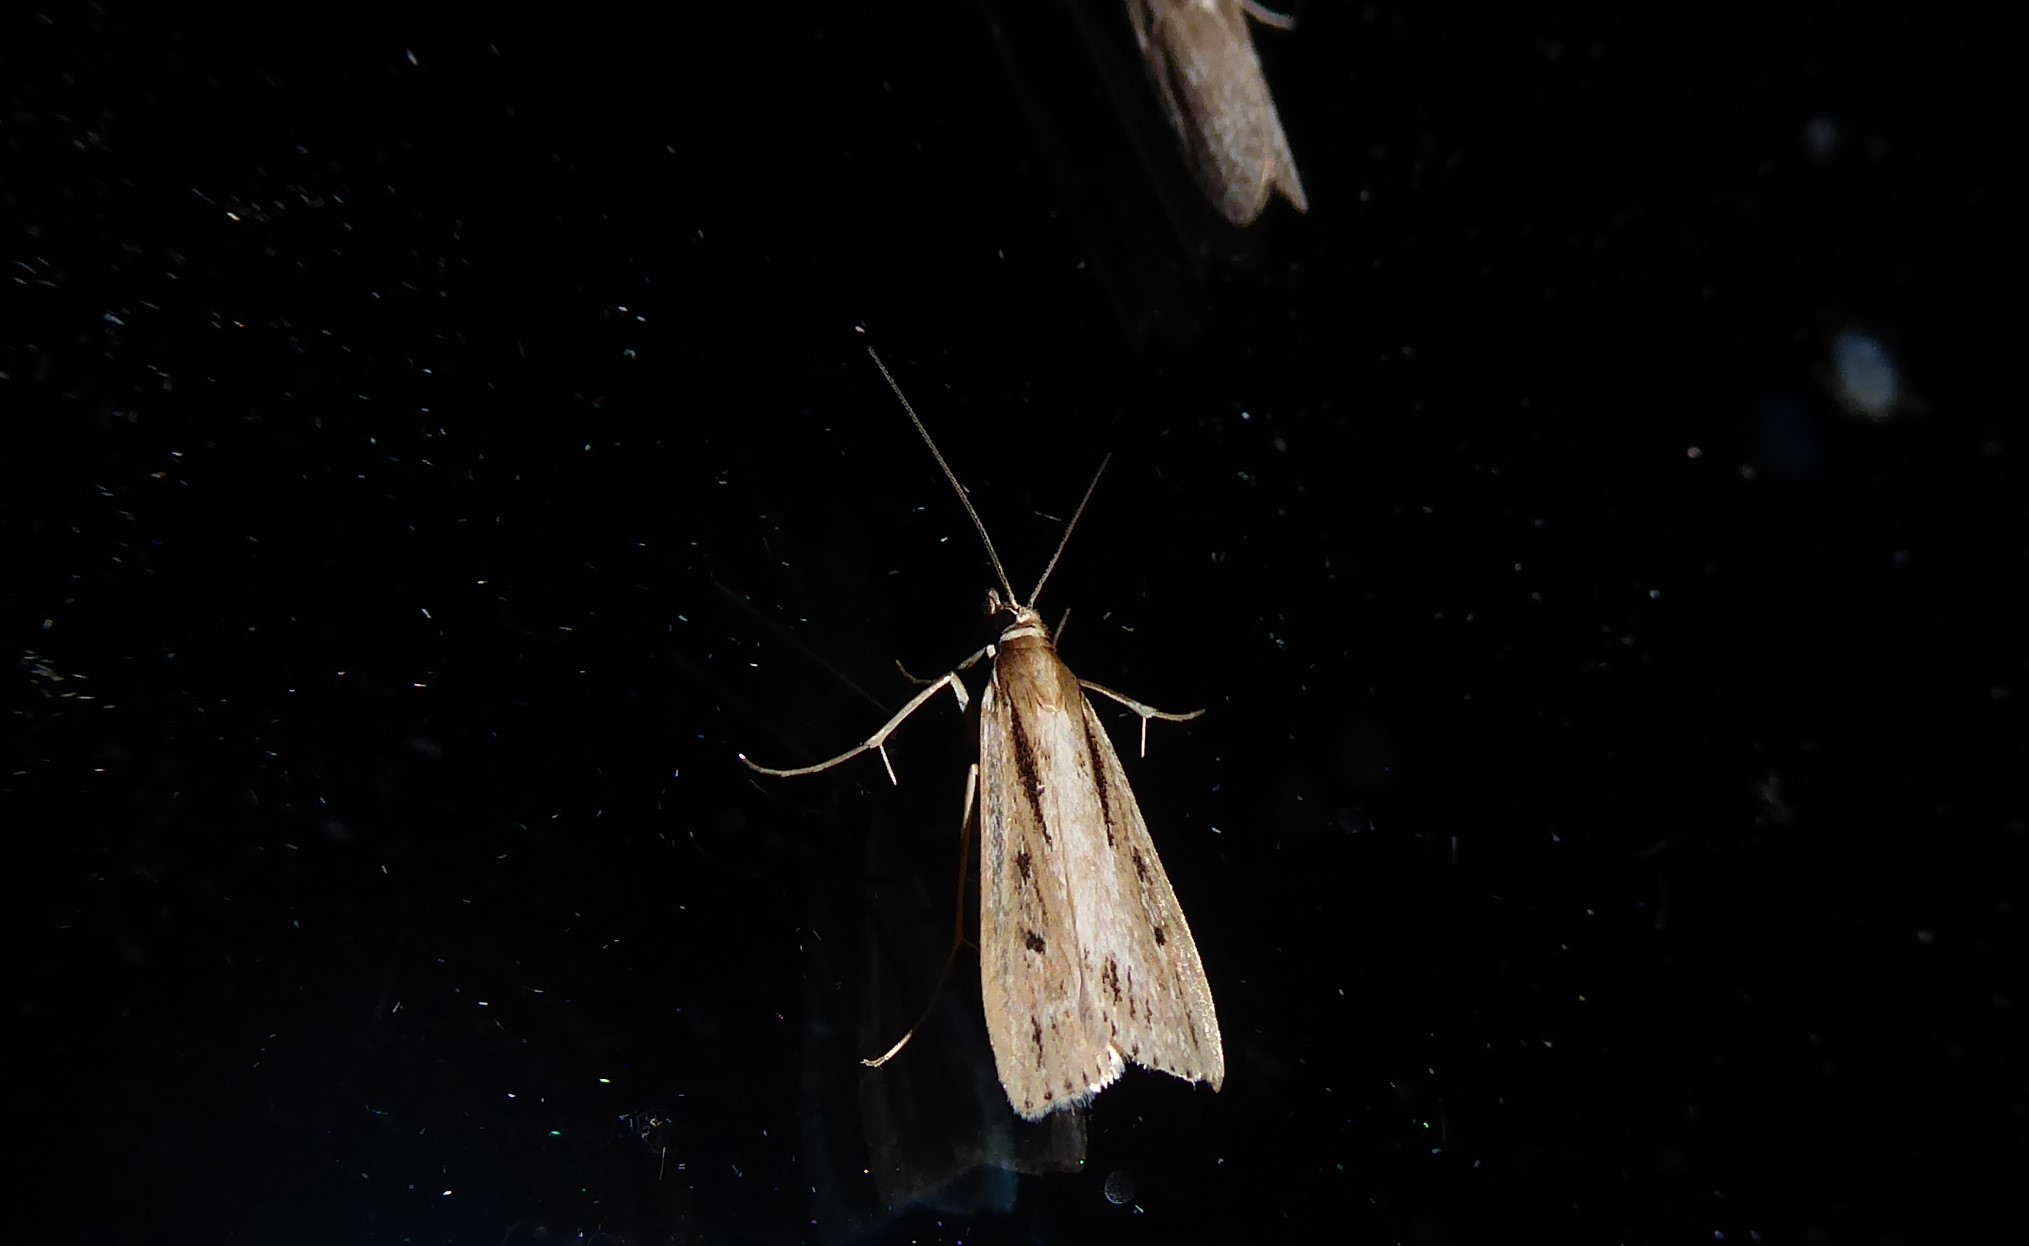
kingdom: Animalia
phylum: Arthropoda
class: Insecta
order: Lepidoptera
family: Crambidae
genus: Eudonia
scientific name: Eudonia sabulosella
